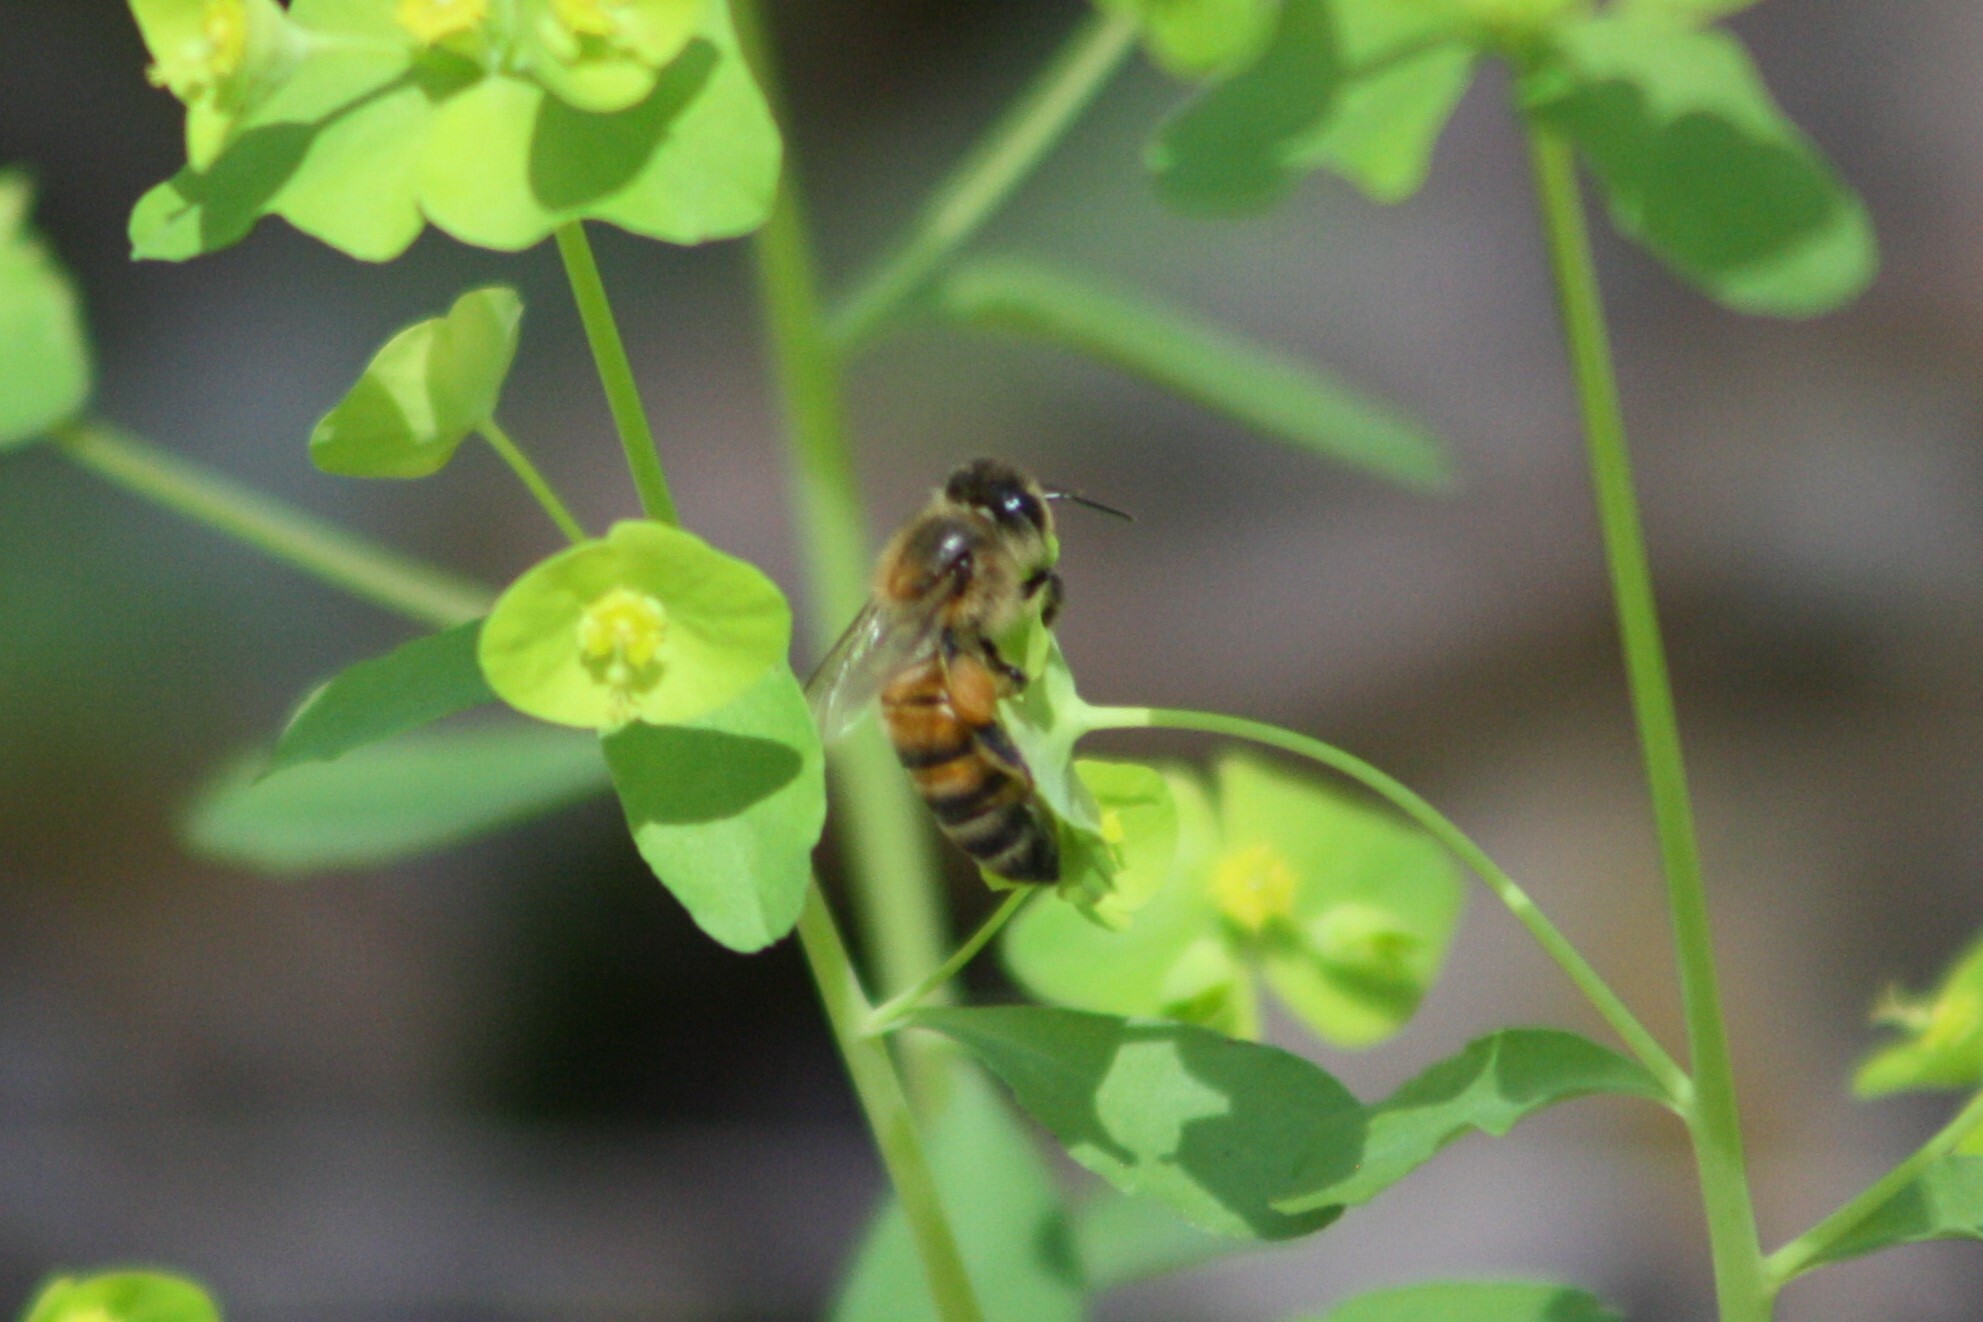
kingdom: Animalia
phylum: Arthropoda
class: Insecta
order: Hymenoptera
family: Apidae
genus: Apis
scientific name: Apis mellifera
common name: Honey bee
